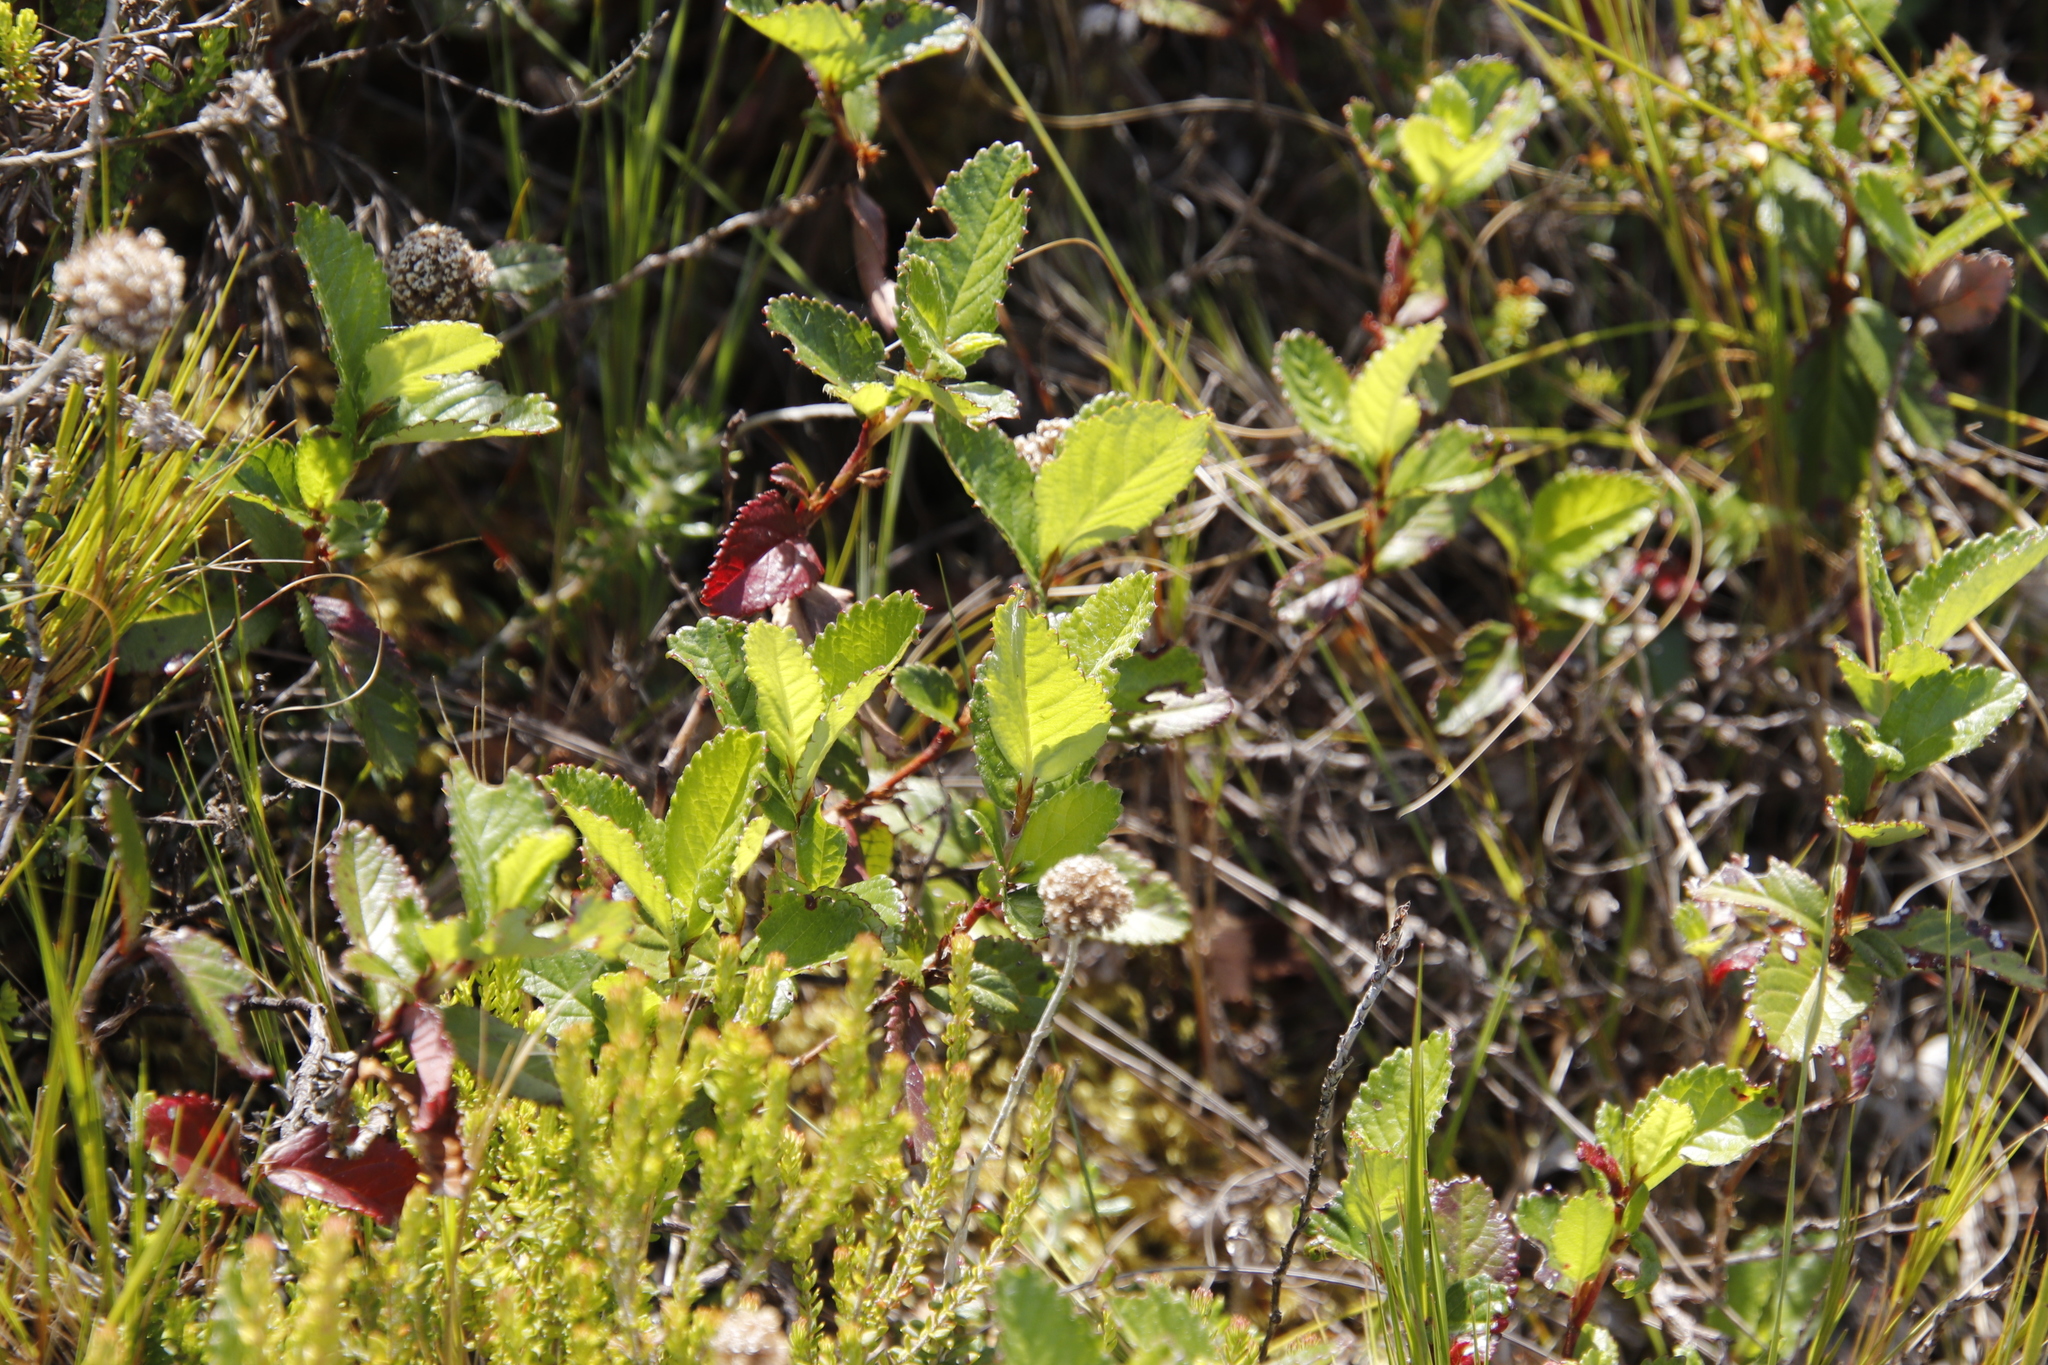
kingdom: Plantae
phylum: Tracheophyta
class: Magnoliopsida
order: Rosales
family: Rosaceae
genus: Cliffortia
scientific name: Cliffortia odorata
